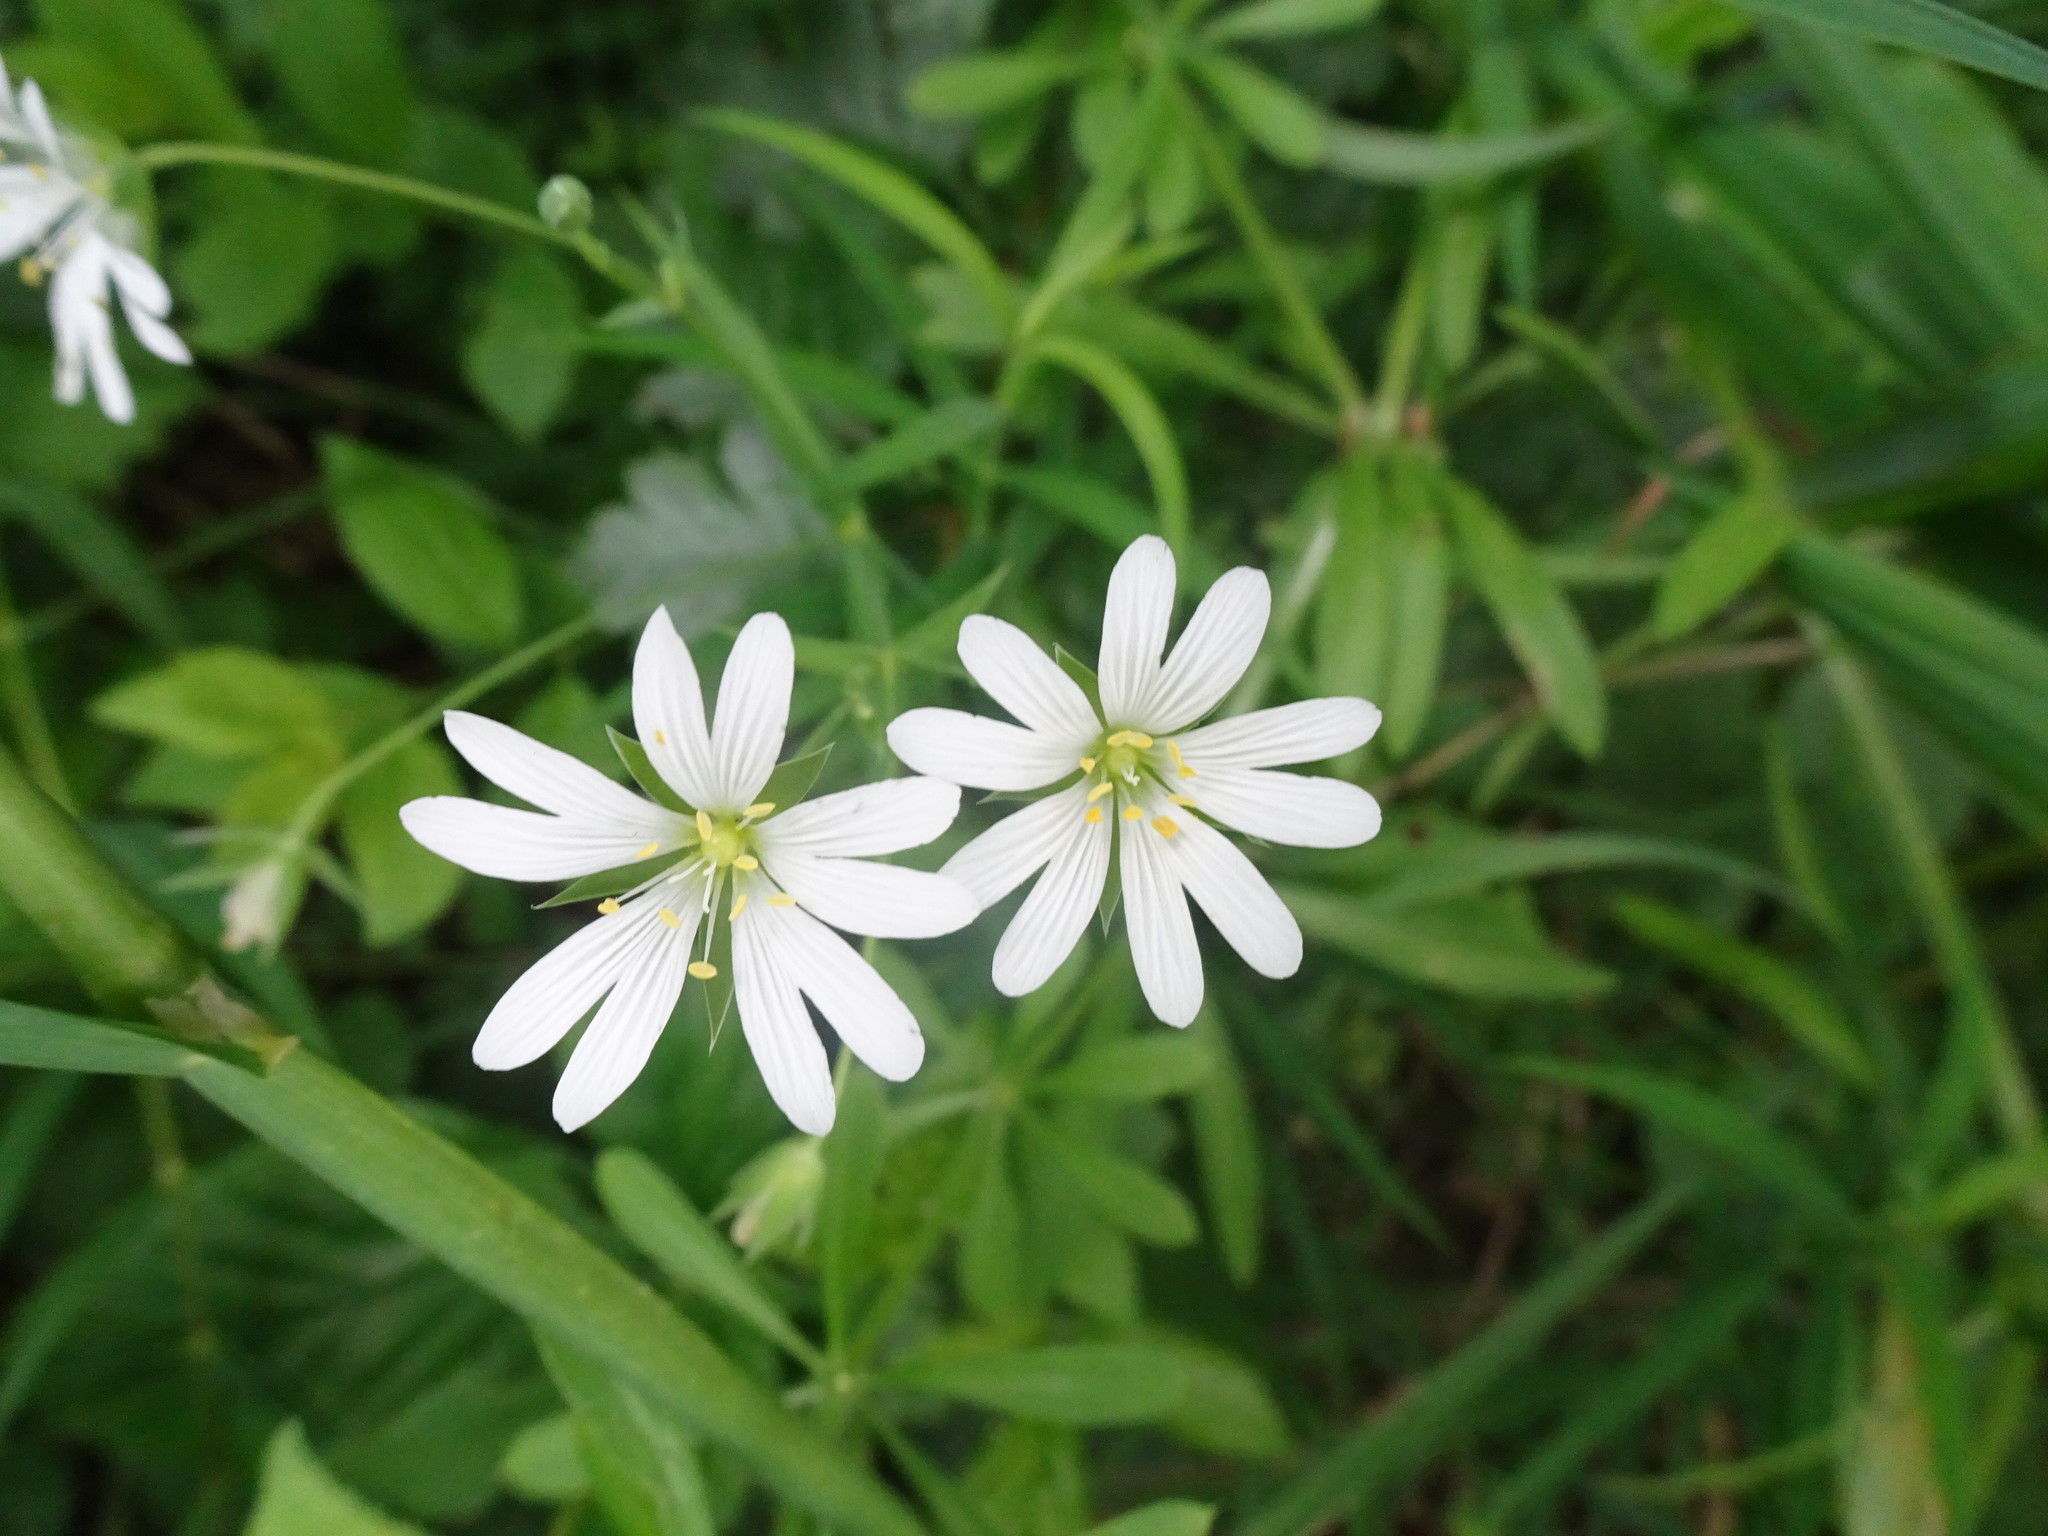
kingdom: Plantae
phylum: Tracheophyta
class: Magnoliopsida
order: Caryophyllales
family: Caryophyllaceae
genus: Rabelera
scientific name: Rabelera holostea
